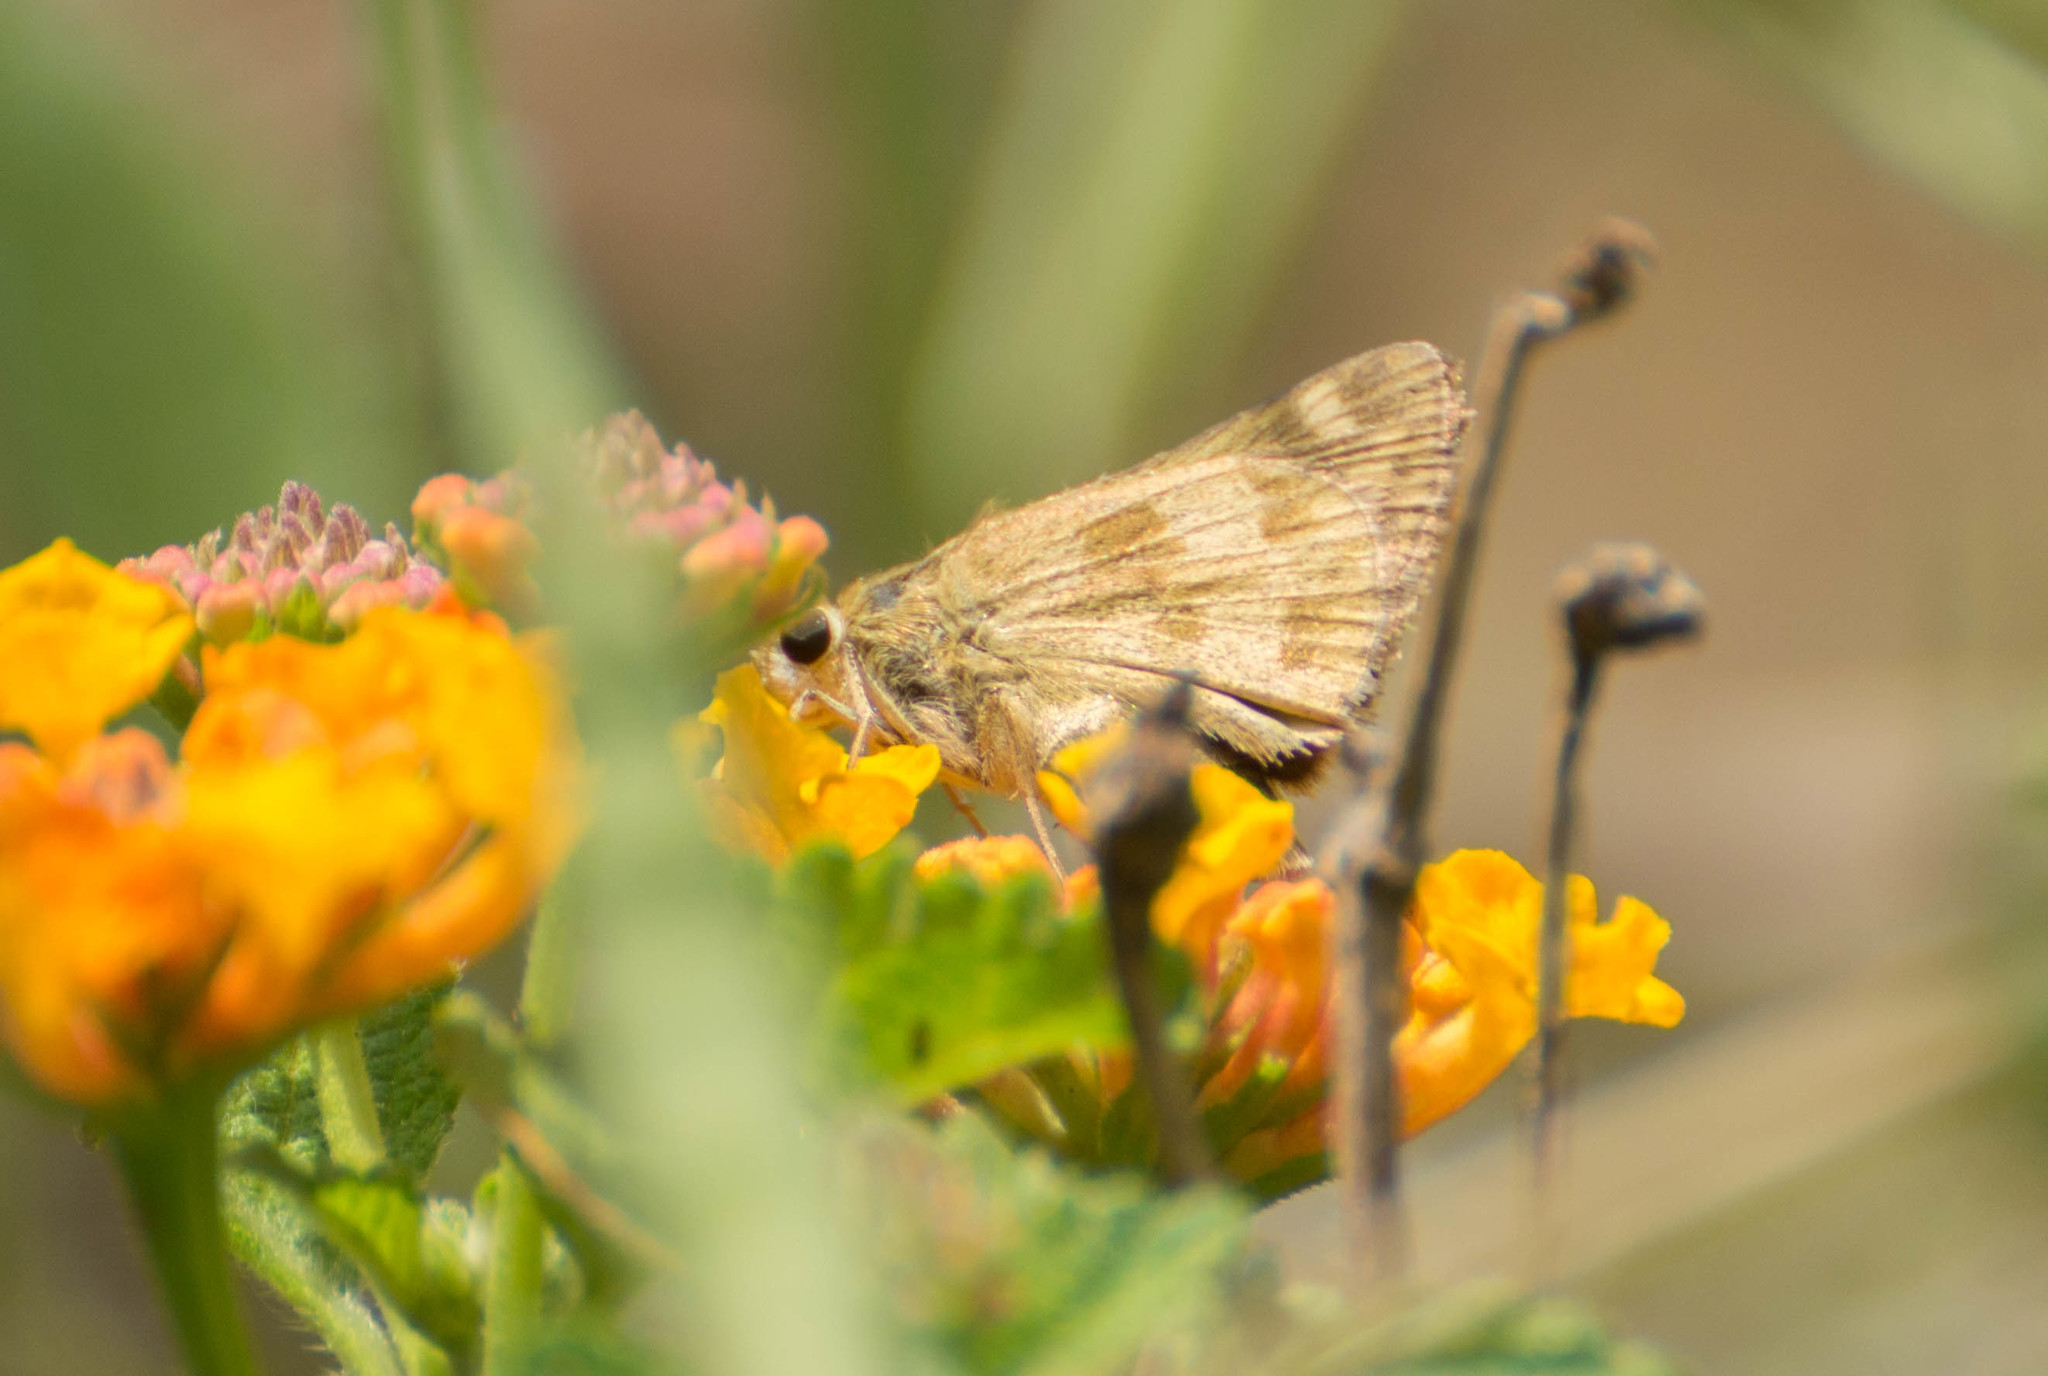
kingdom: Animalia
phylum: Arthropoda
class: Insecta
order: Lepidoptera
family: Hesperiidae
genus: Polites
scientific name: Polites vibex
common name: Whirlabout
